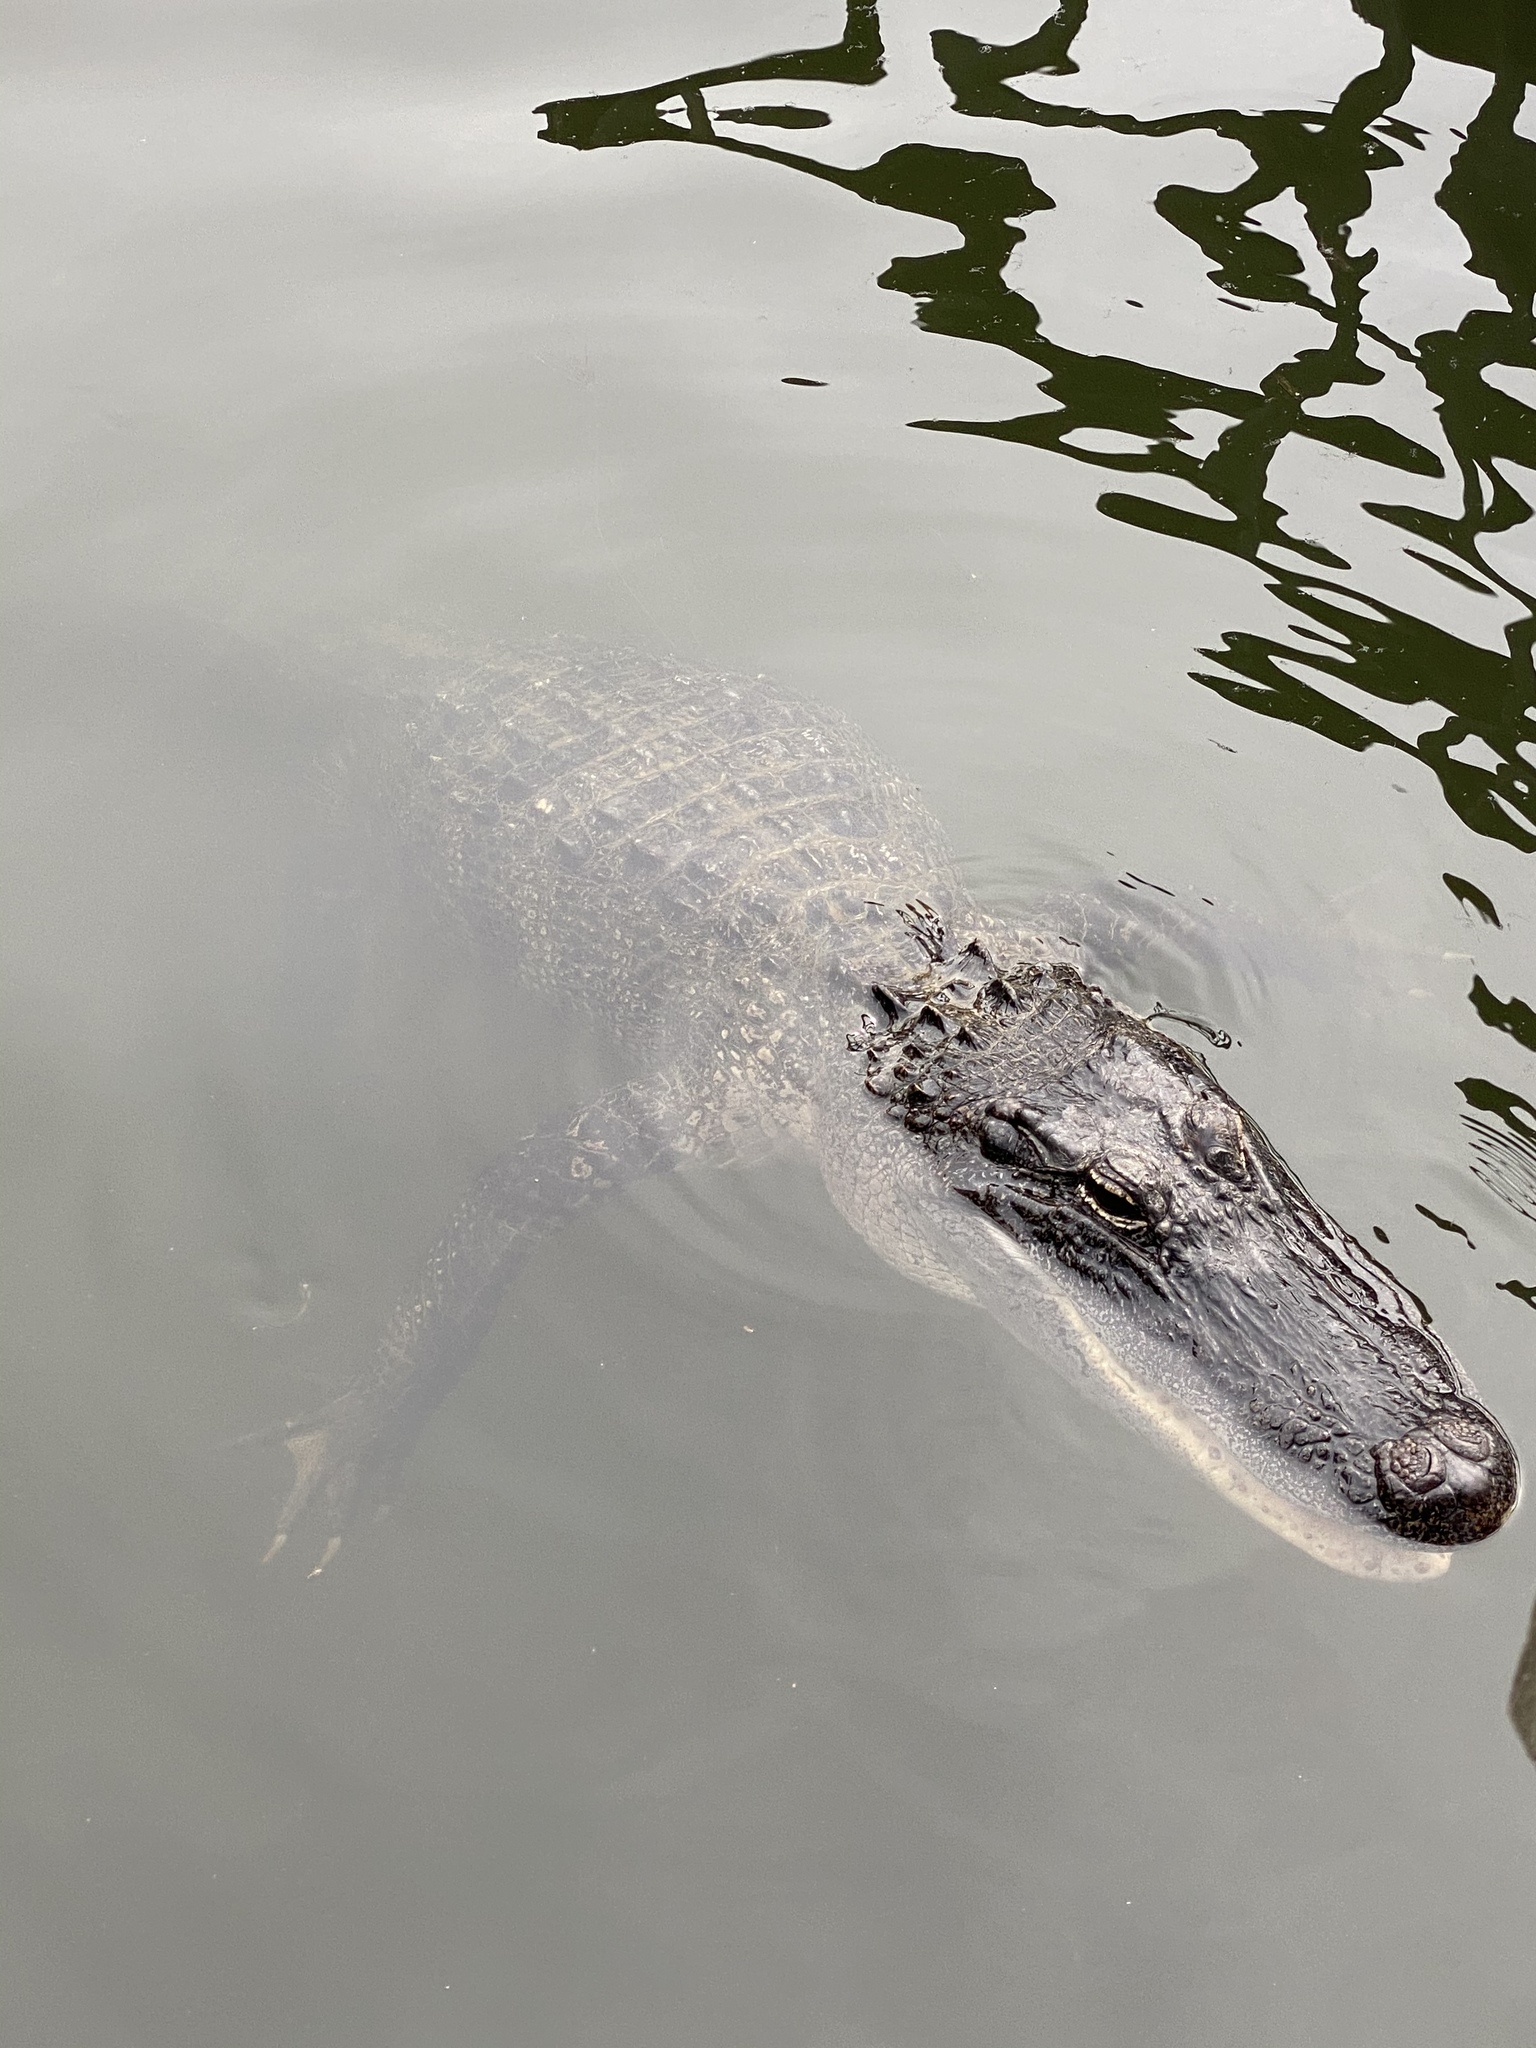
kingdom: Animalia
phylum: Chordata
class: Crocodylia
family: Alligatoridae
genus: Alligator
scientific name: Alligator mississippiensis
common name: American alligator
